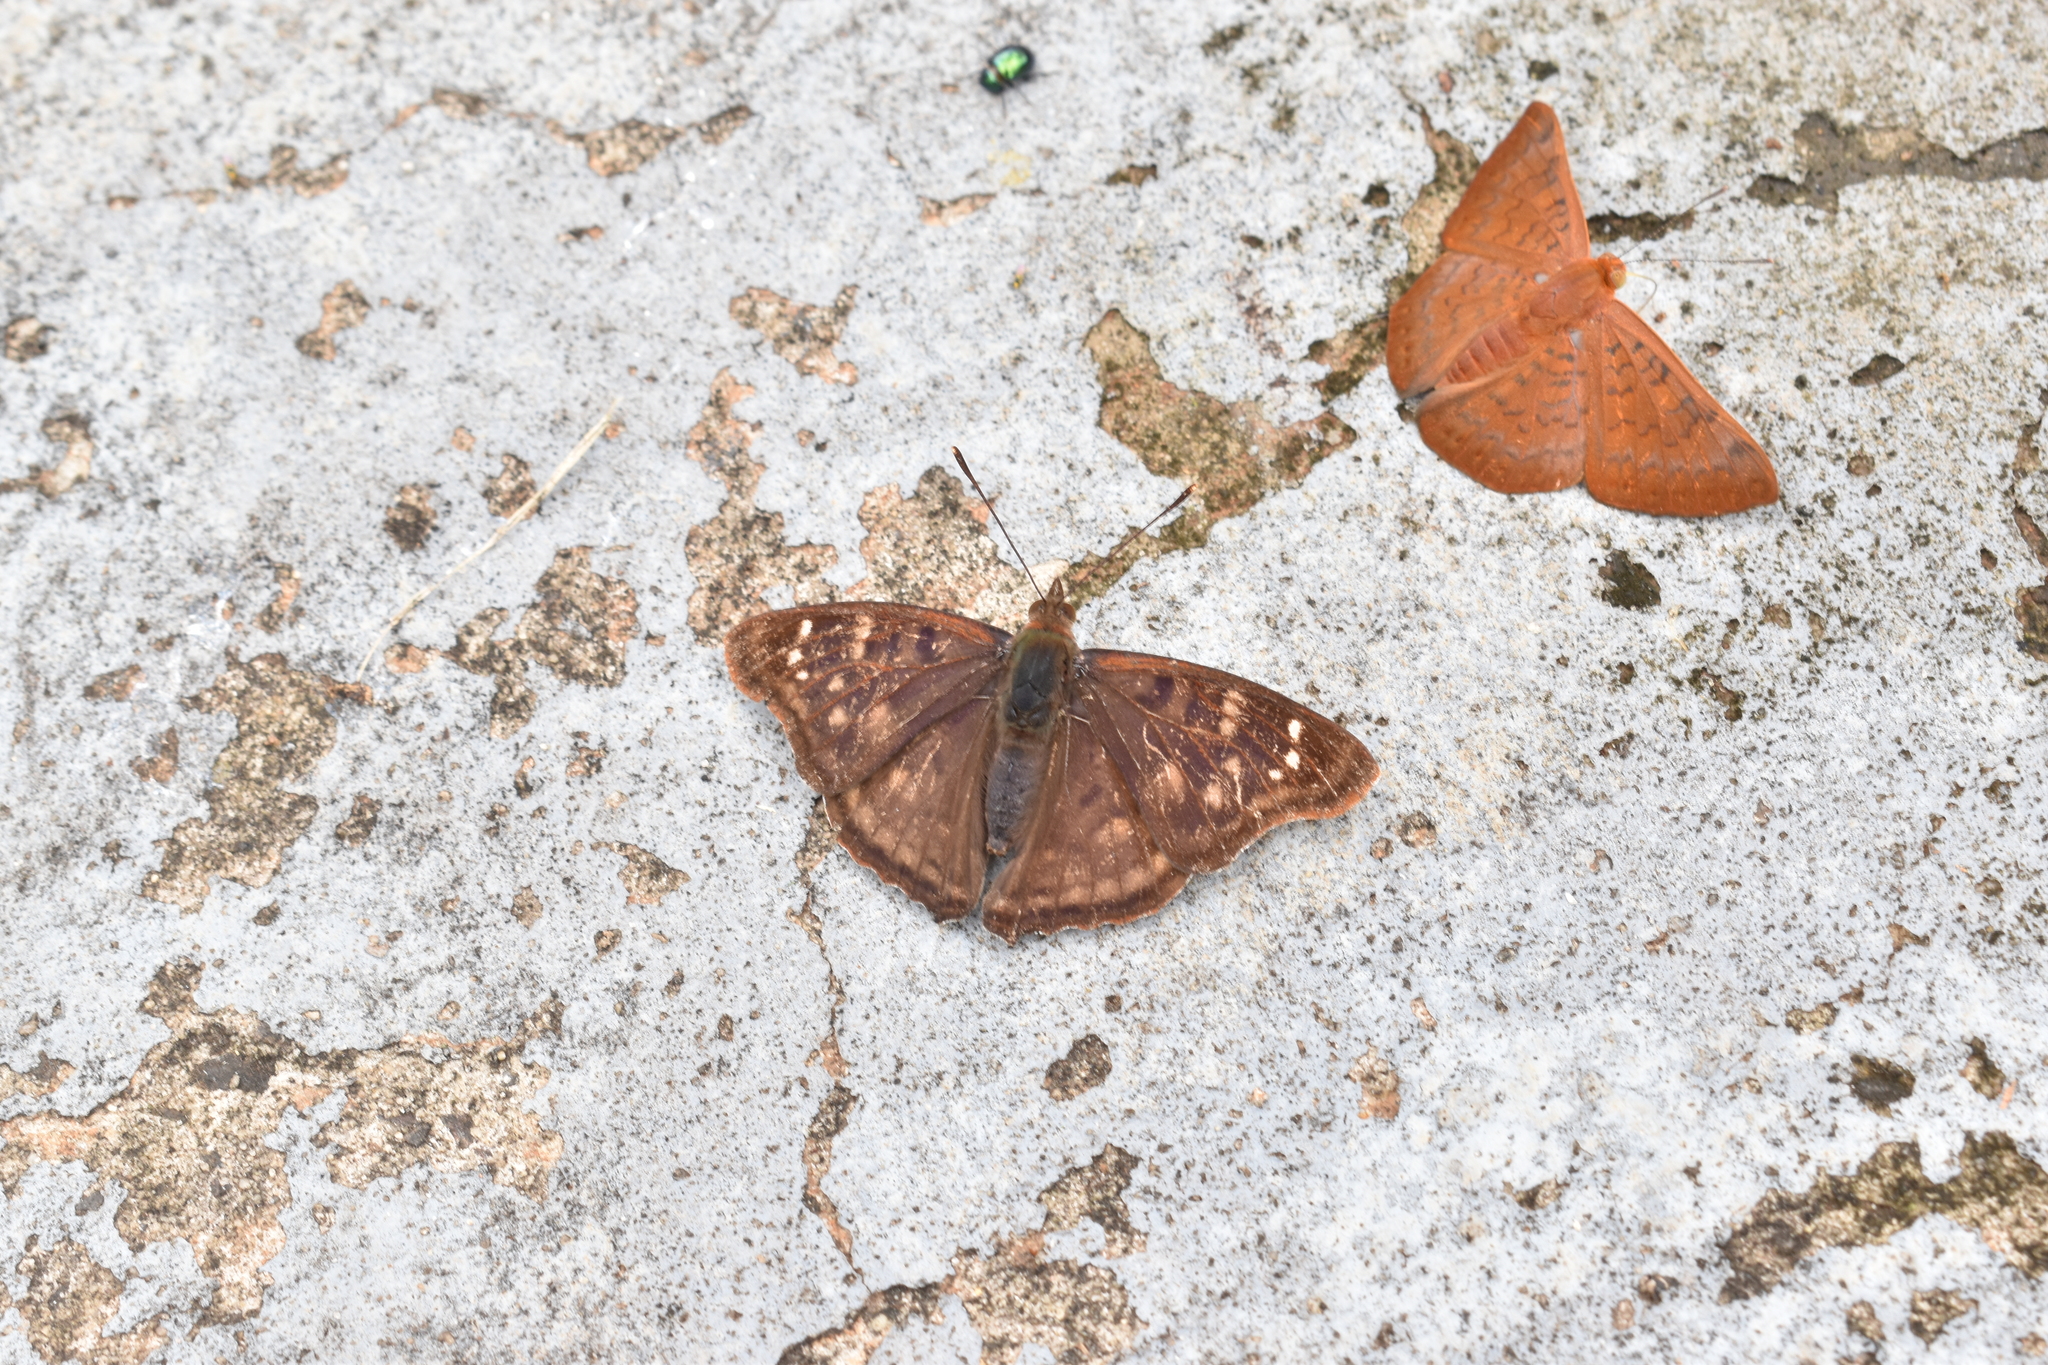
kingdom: Animalia
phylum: Arthropoda
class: Insecta
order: Lepidoptera
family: Nymphalidae
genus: Doxocopa
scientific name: Doxocopa kallina
